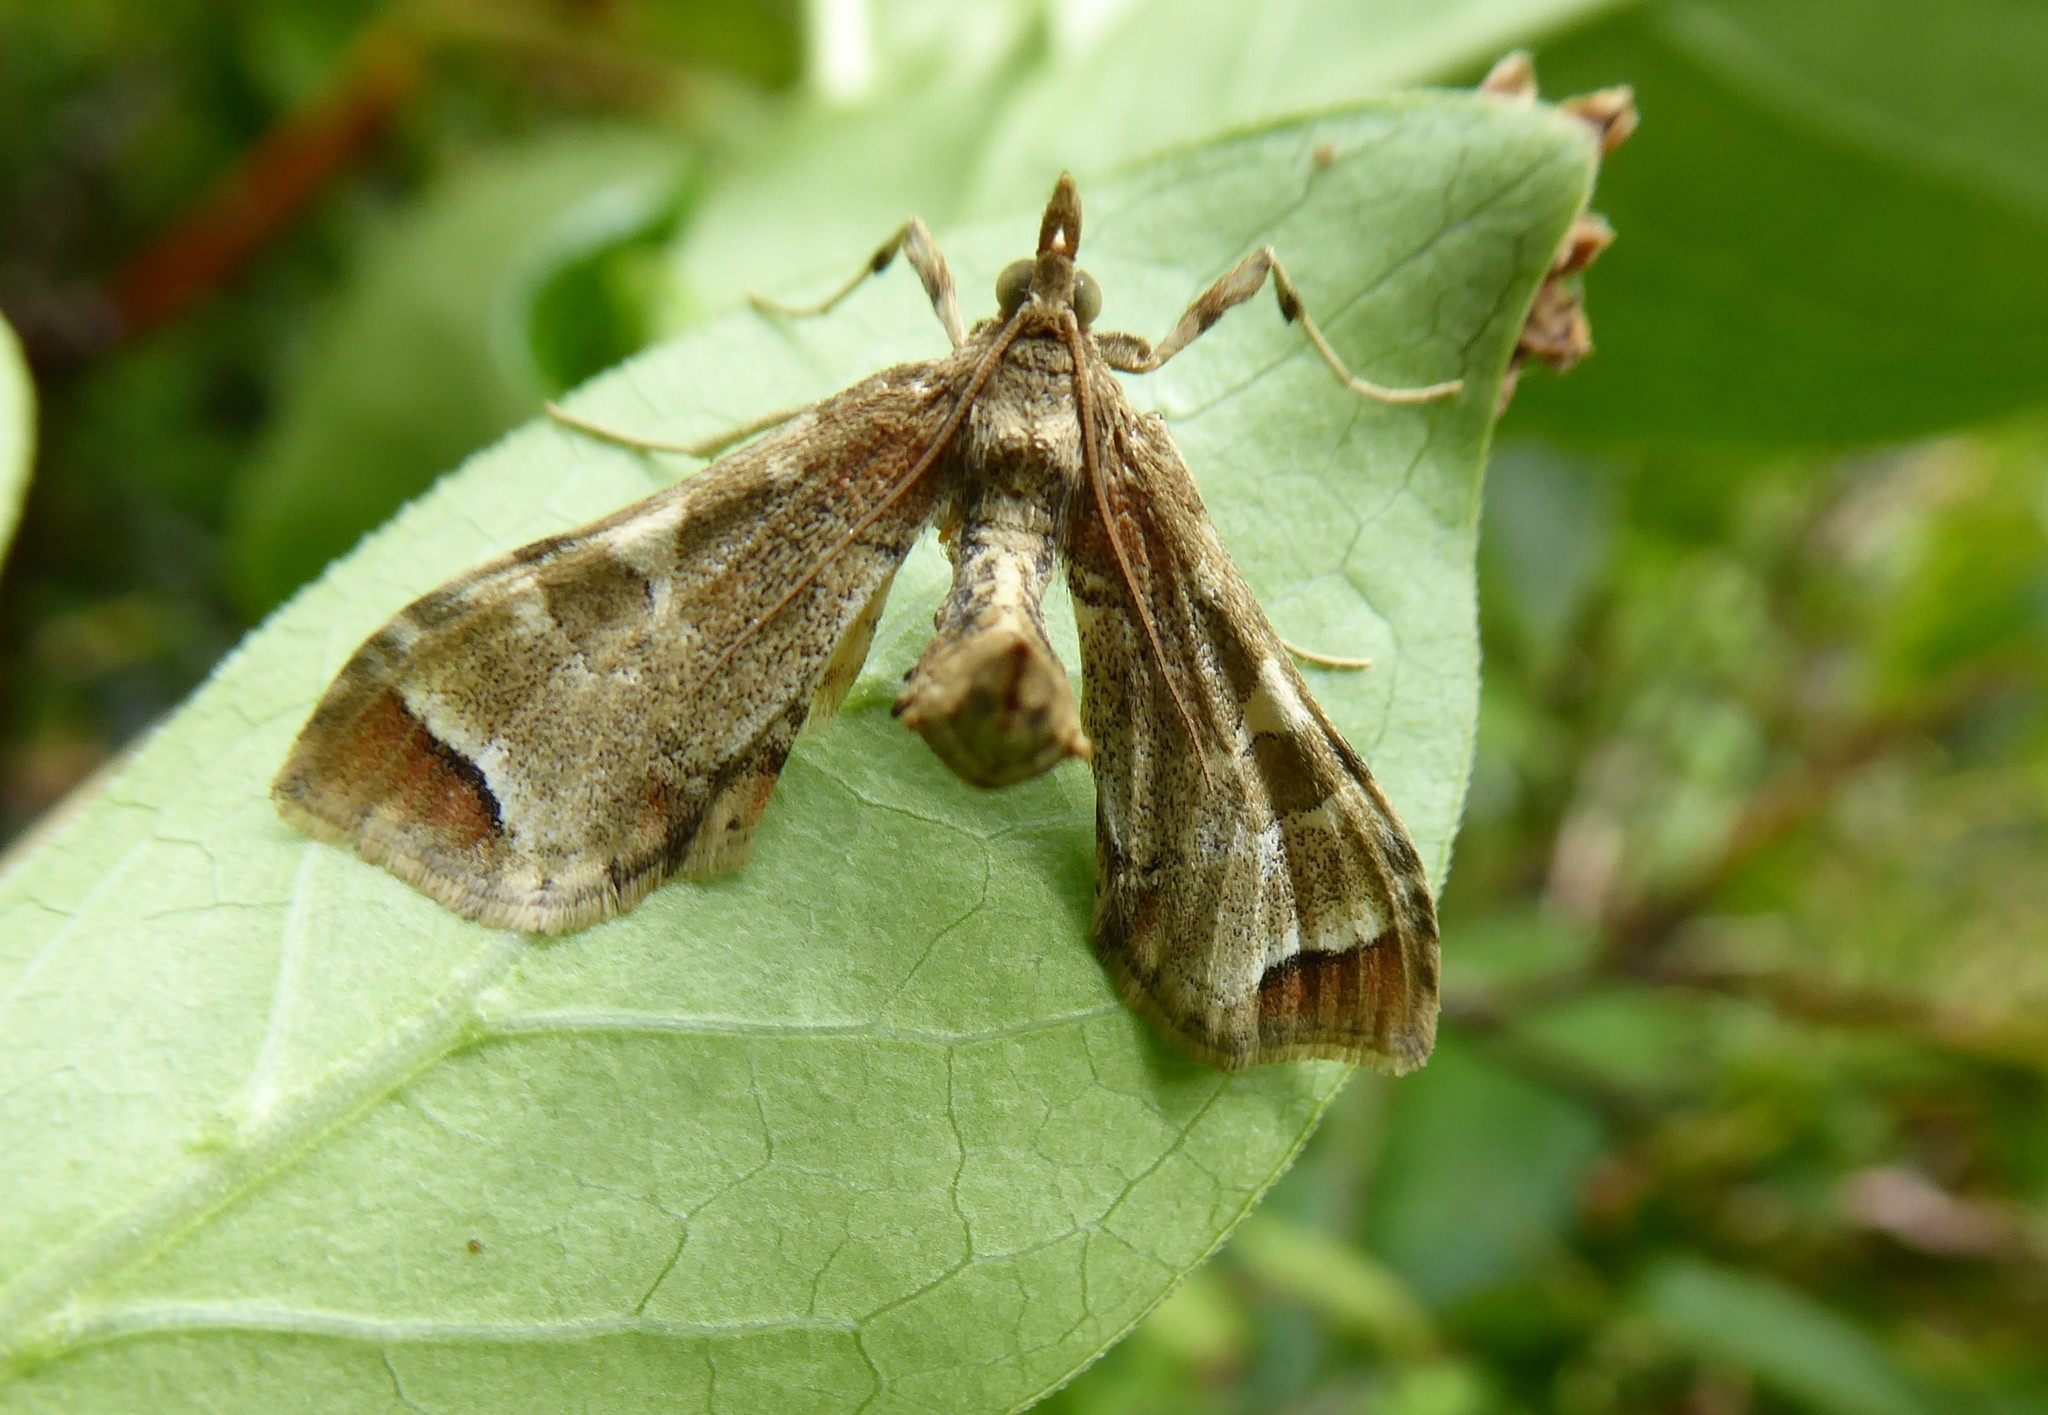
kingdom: Animalia
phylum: Arthropoda
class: Insecta
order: Lepidoptera
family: Crambidae
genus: Sceliodes
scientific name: Sceliodes cordalis
